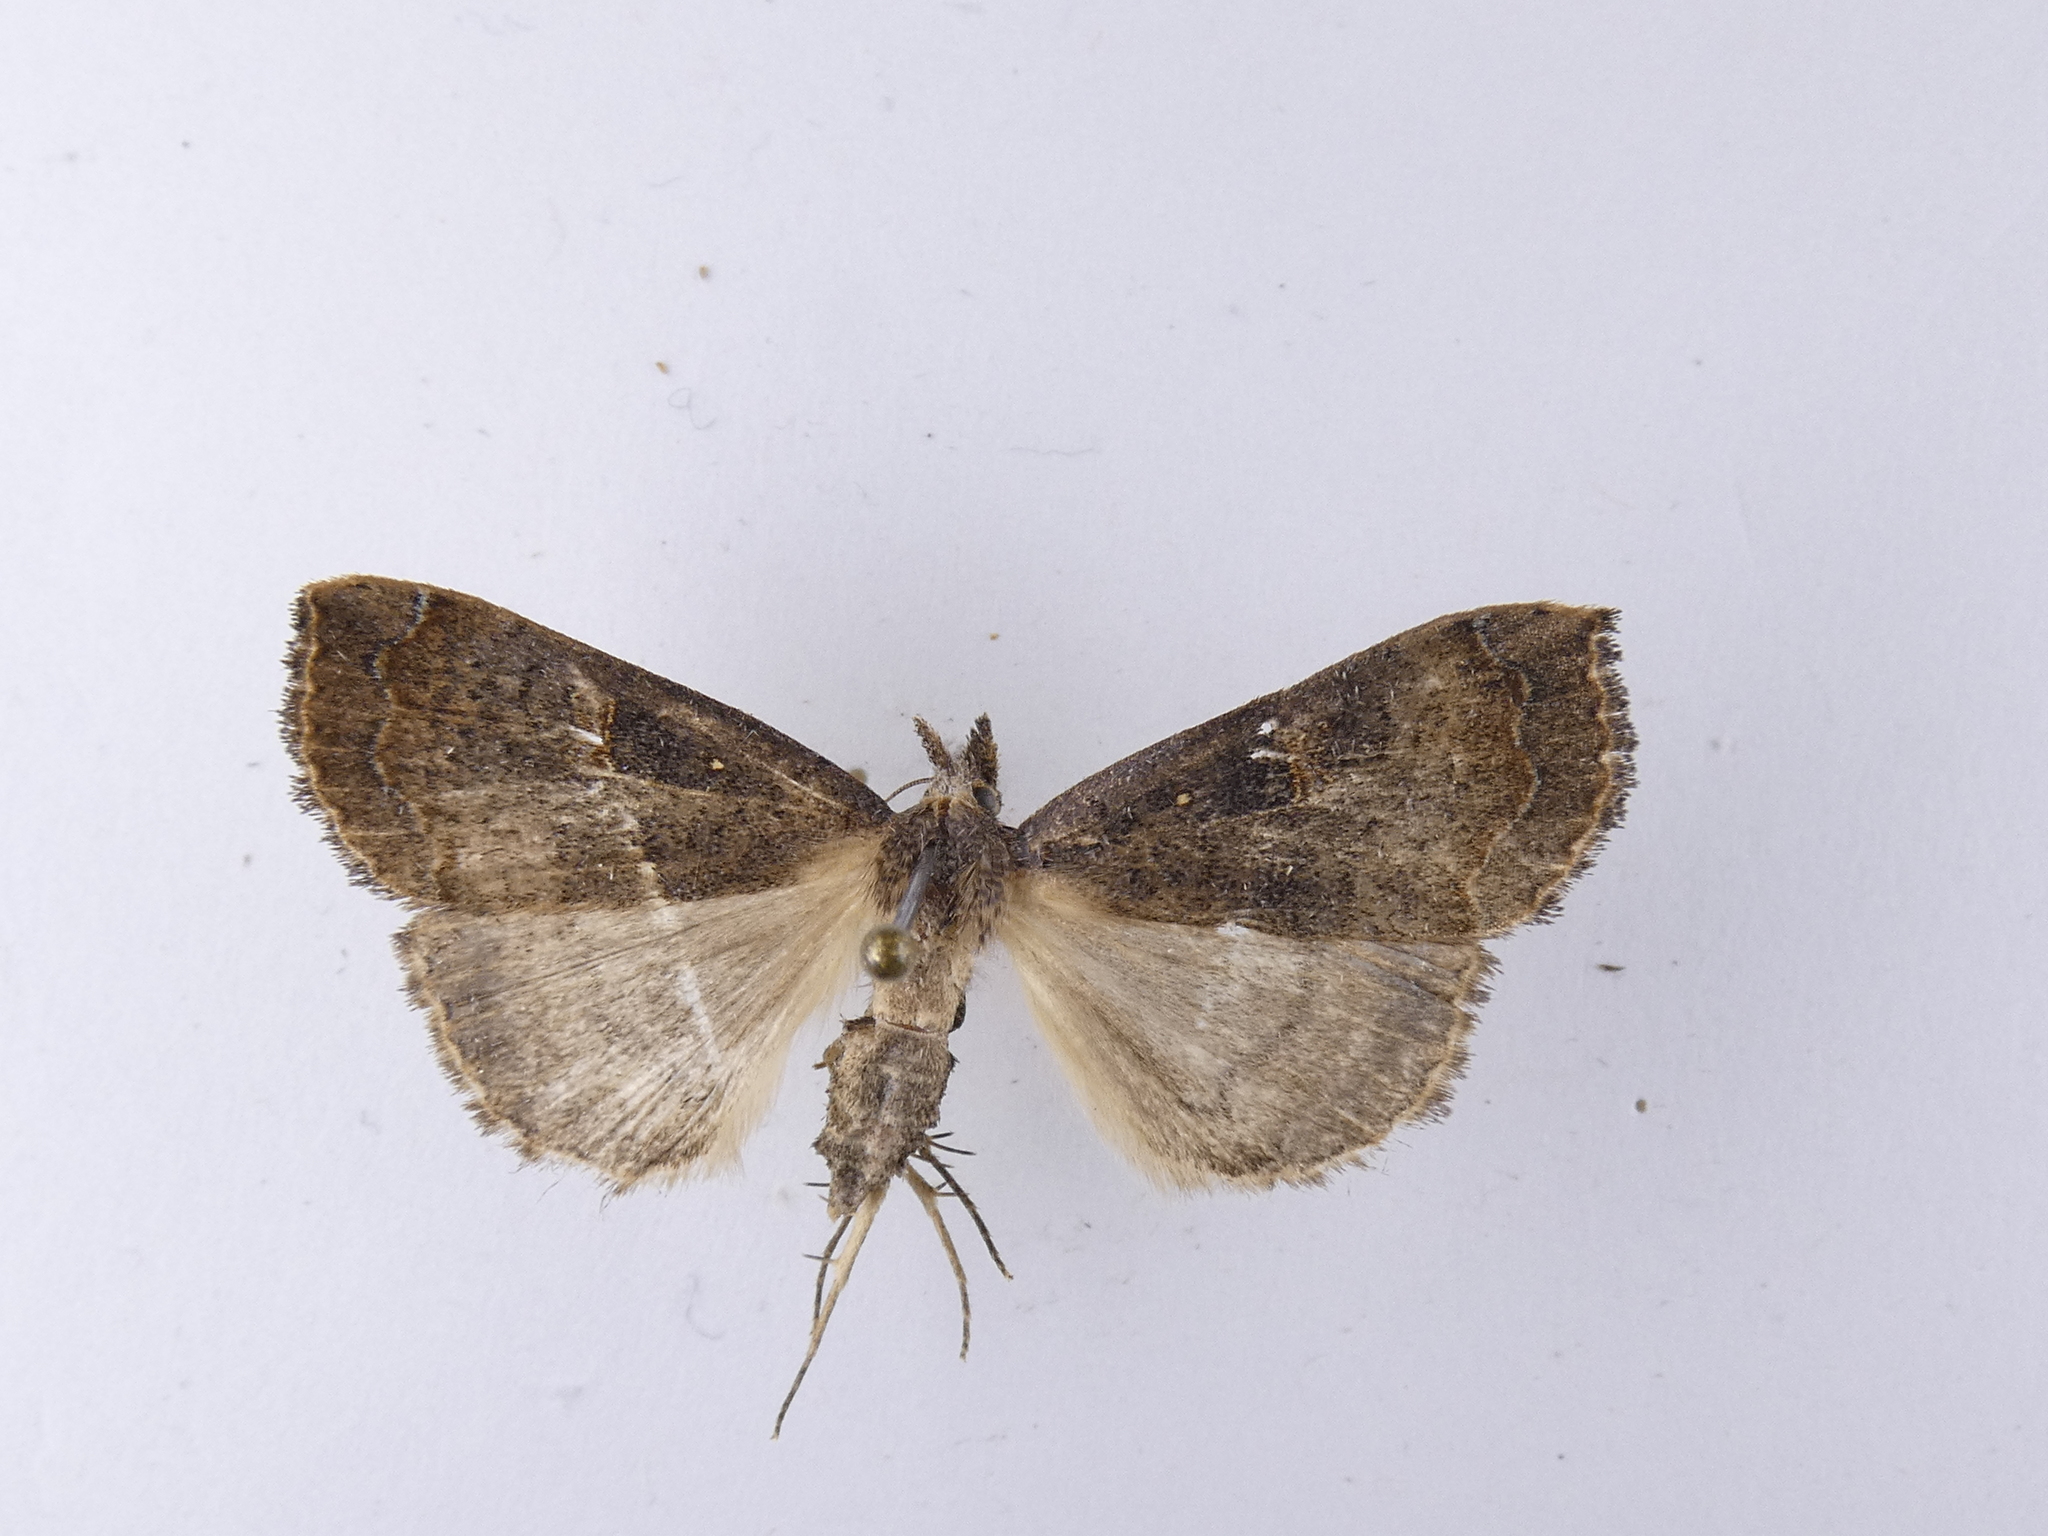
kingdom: Animalia
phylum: Arthropoda
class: Insecta
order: Lepidoptera
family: Erebidae
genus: Rhapsa
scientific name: Rhapsa scotosialis
